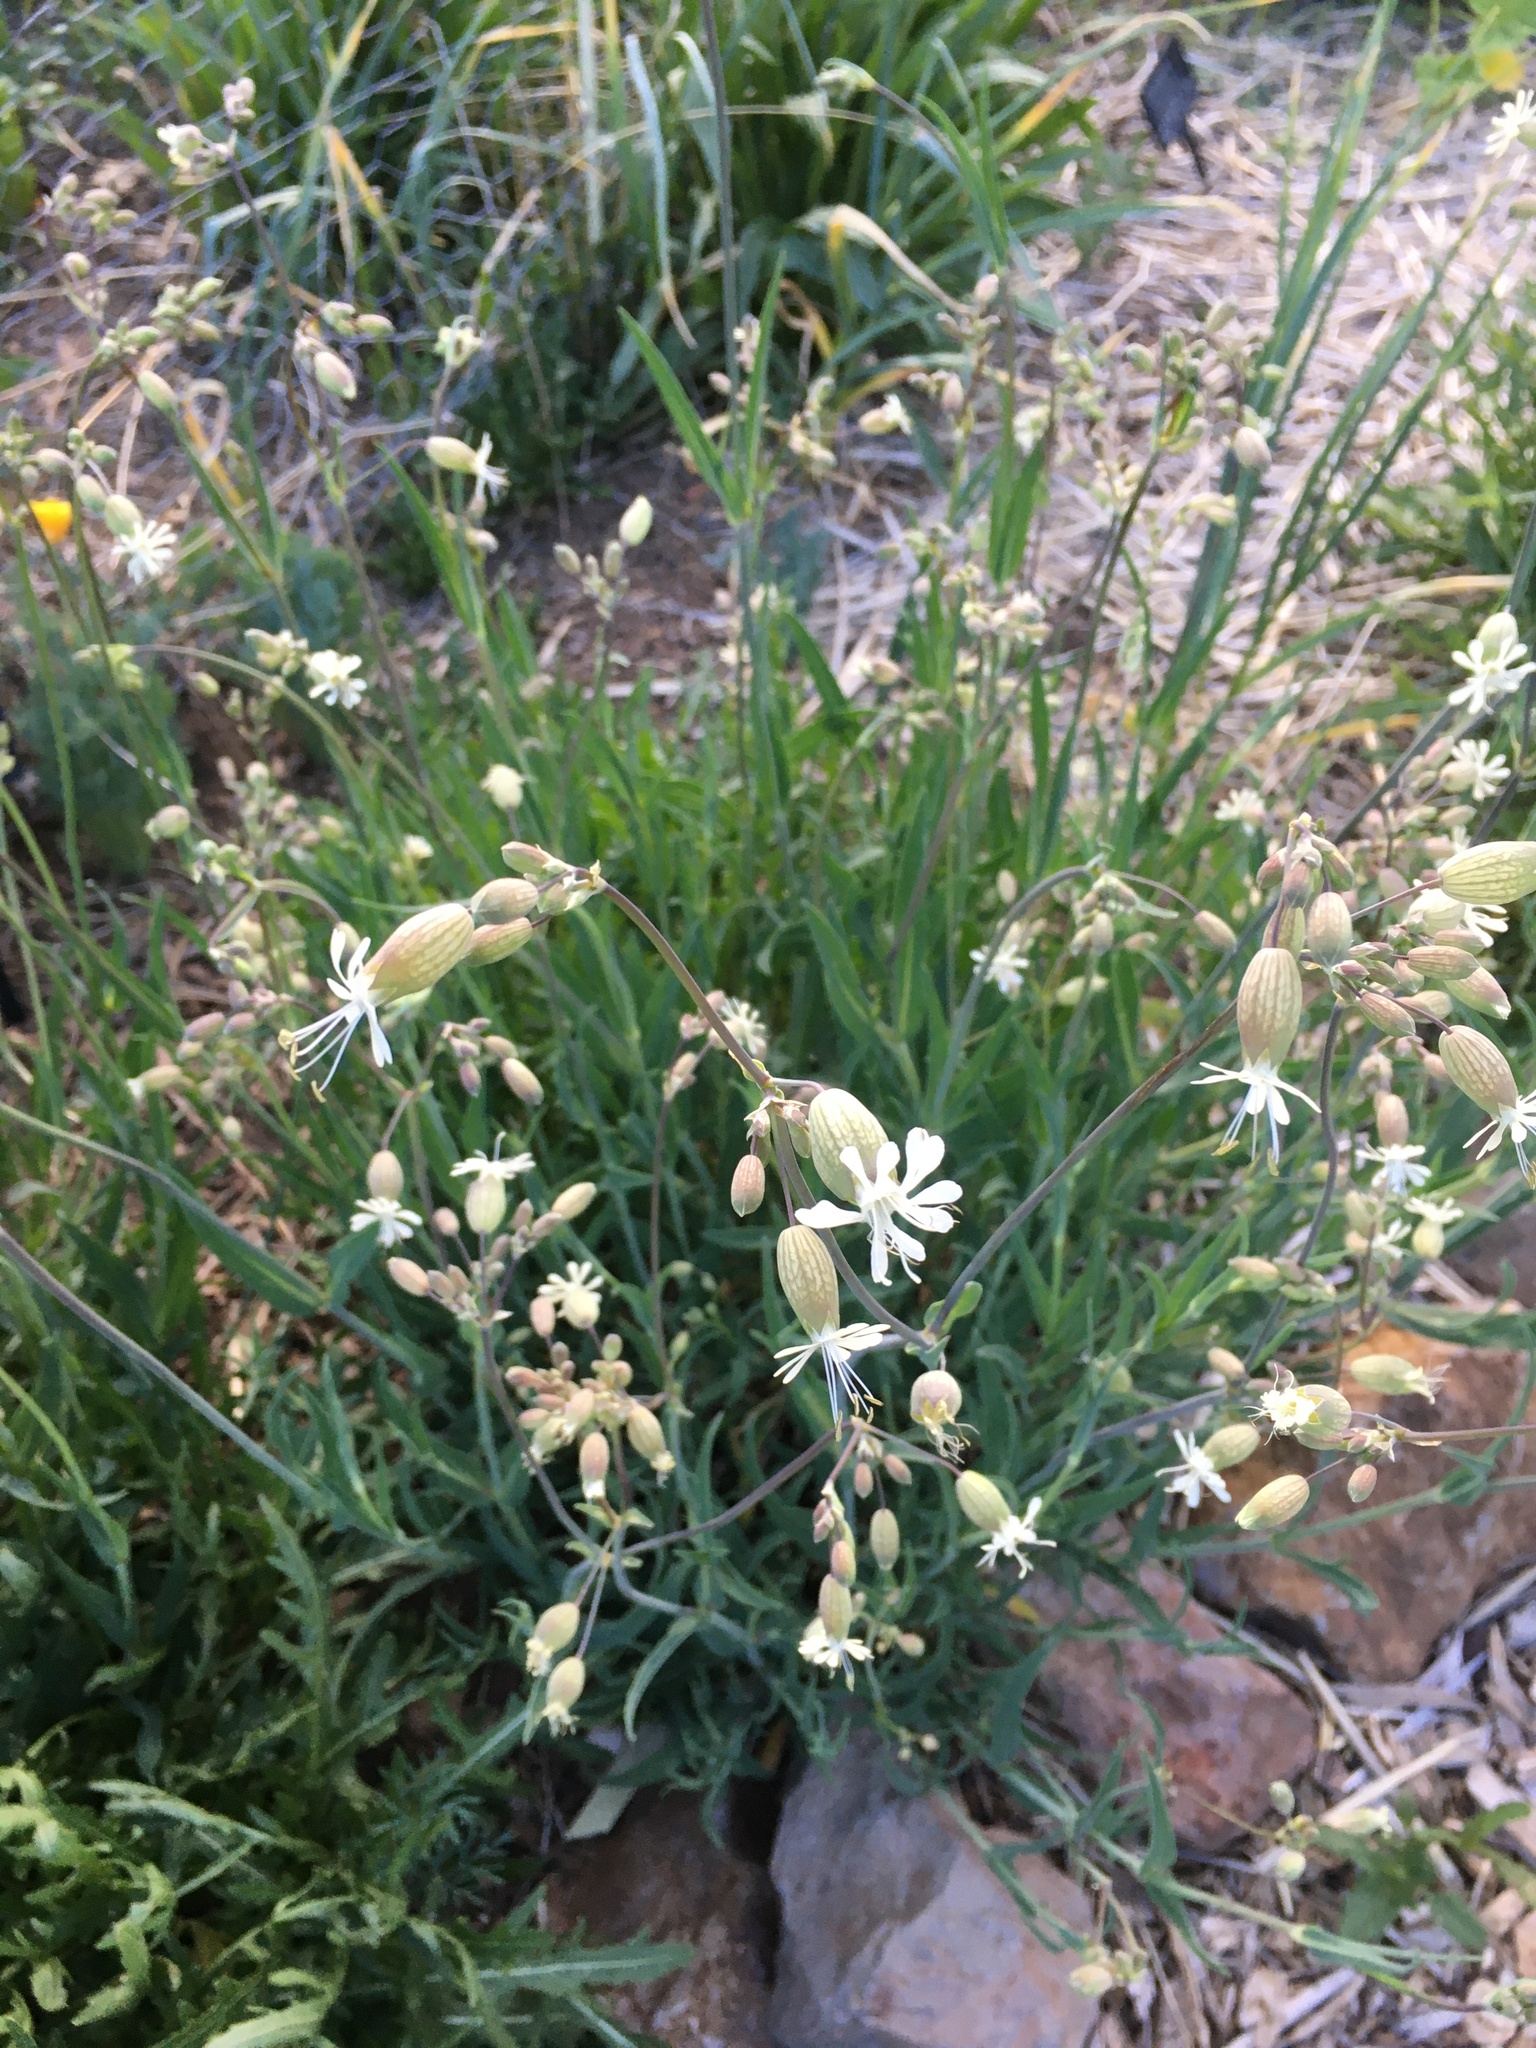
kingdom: Plantae
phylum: Tracheophyta
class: Magnoliopsida
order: Caryophyllales
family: Caryophyllaceae
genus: Silene
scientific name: Silene vulgaris
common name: Bladder campion
